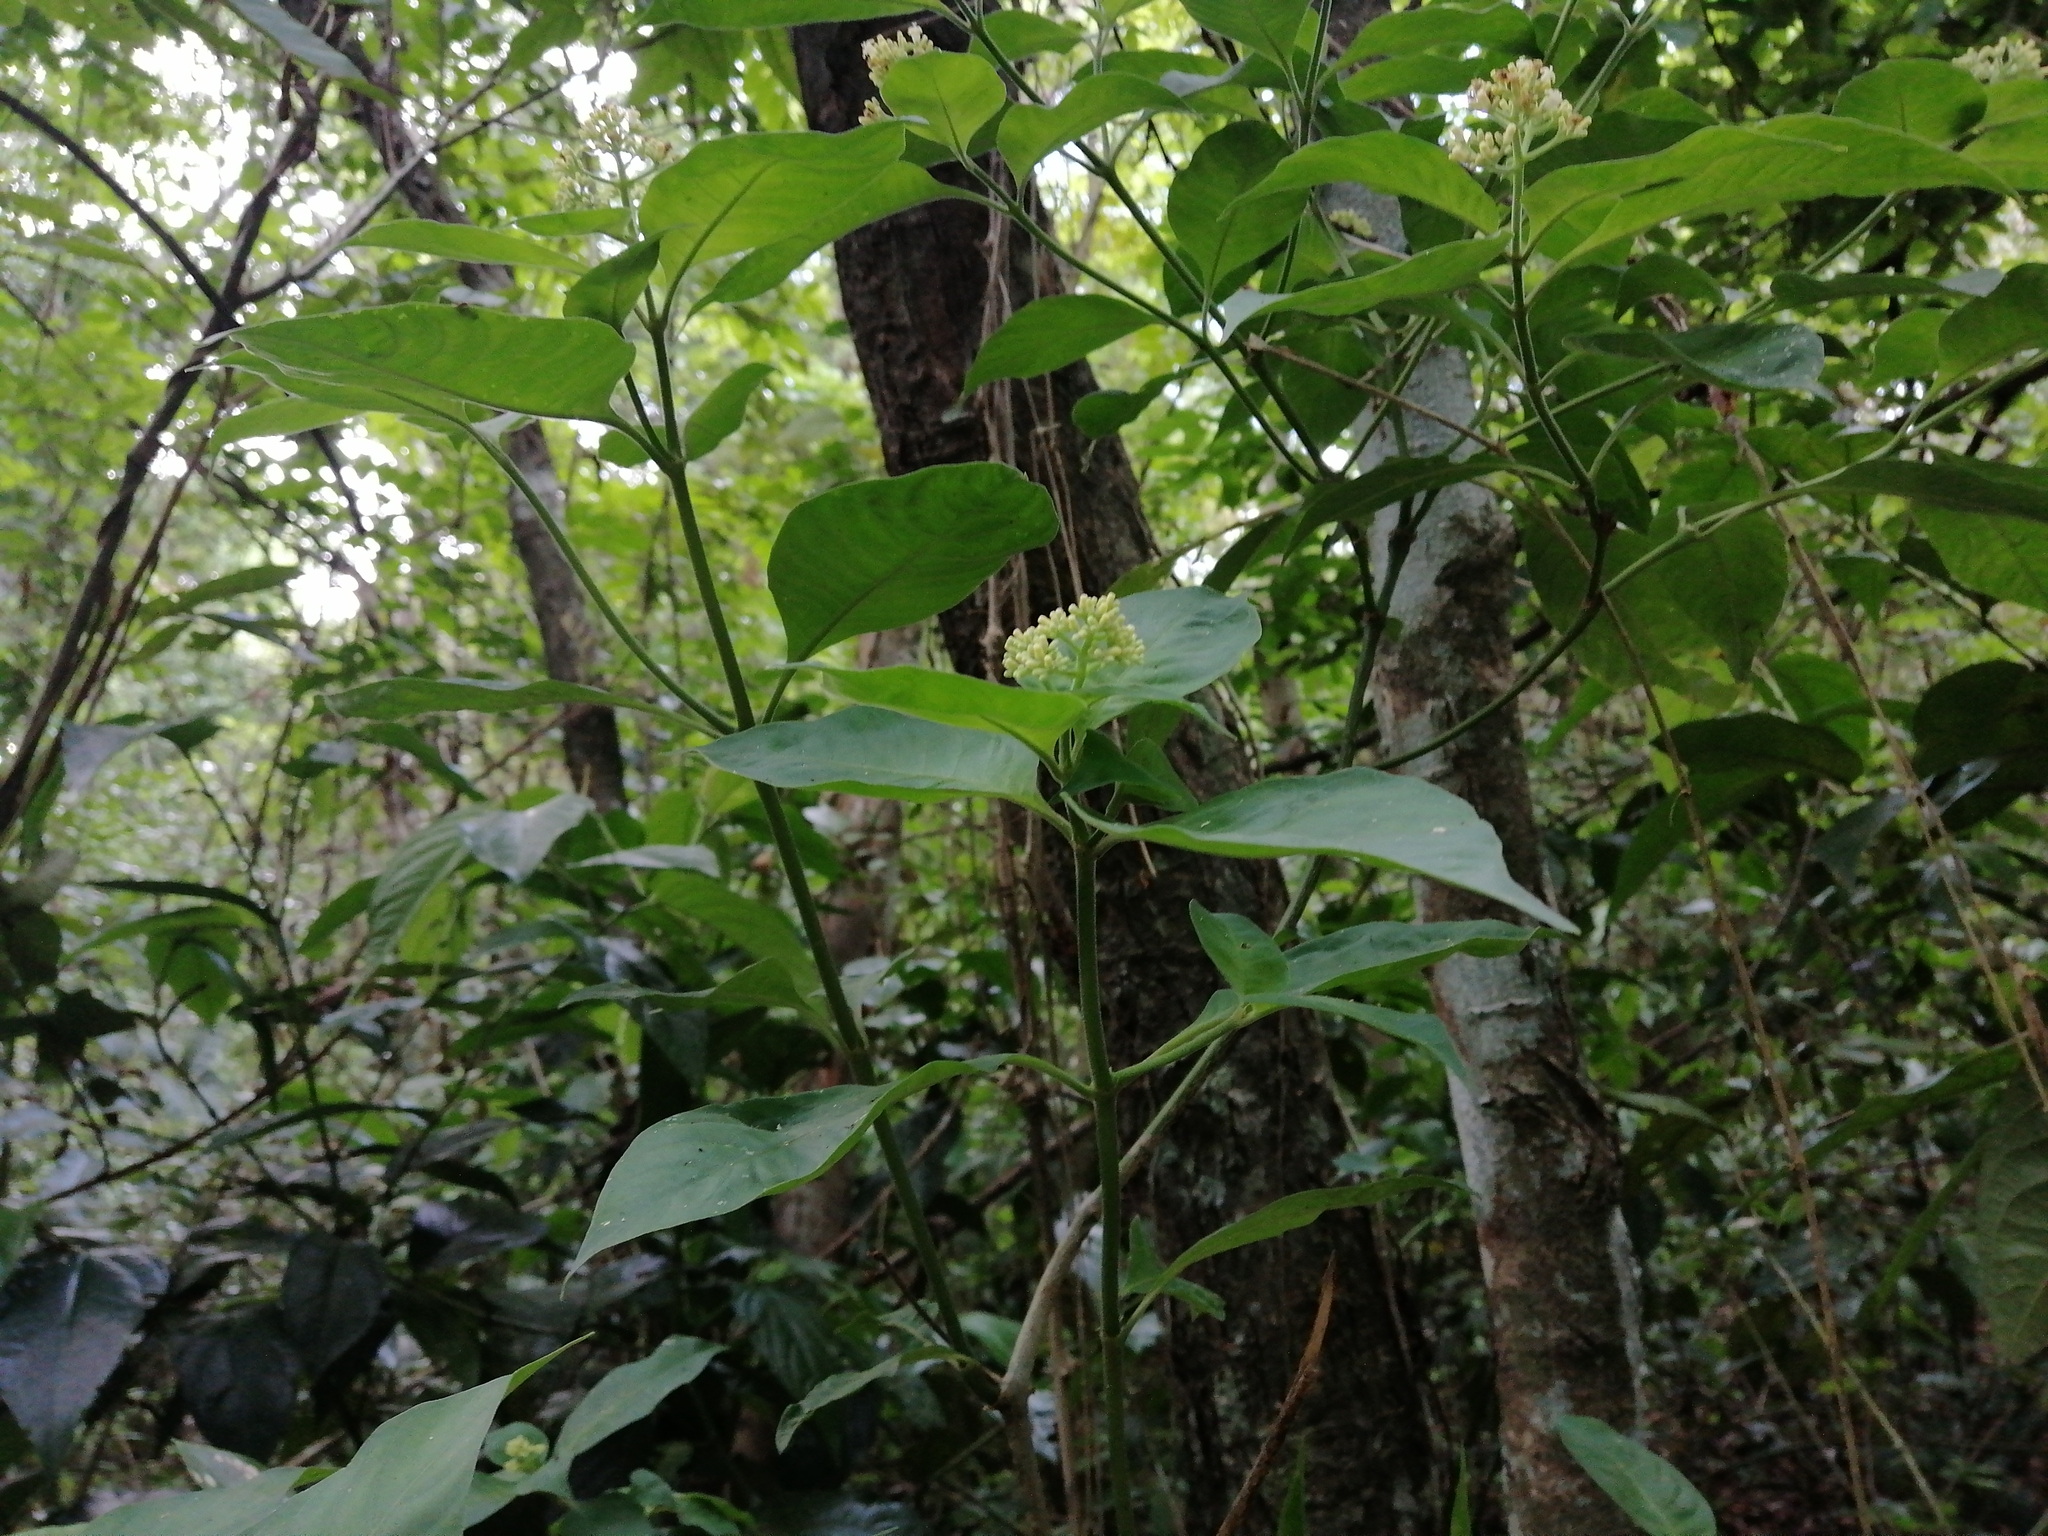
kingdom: Plantae
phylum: Tracheophyta
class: Magnoliopsida
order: Gentianales
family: Rubiaceae
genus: Palicourea
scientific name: Palicourea pubescens
